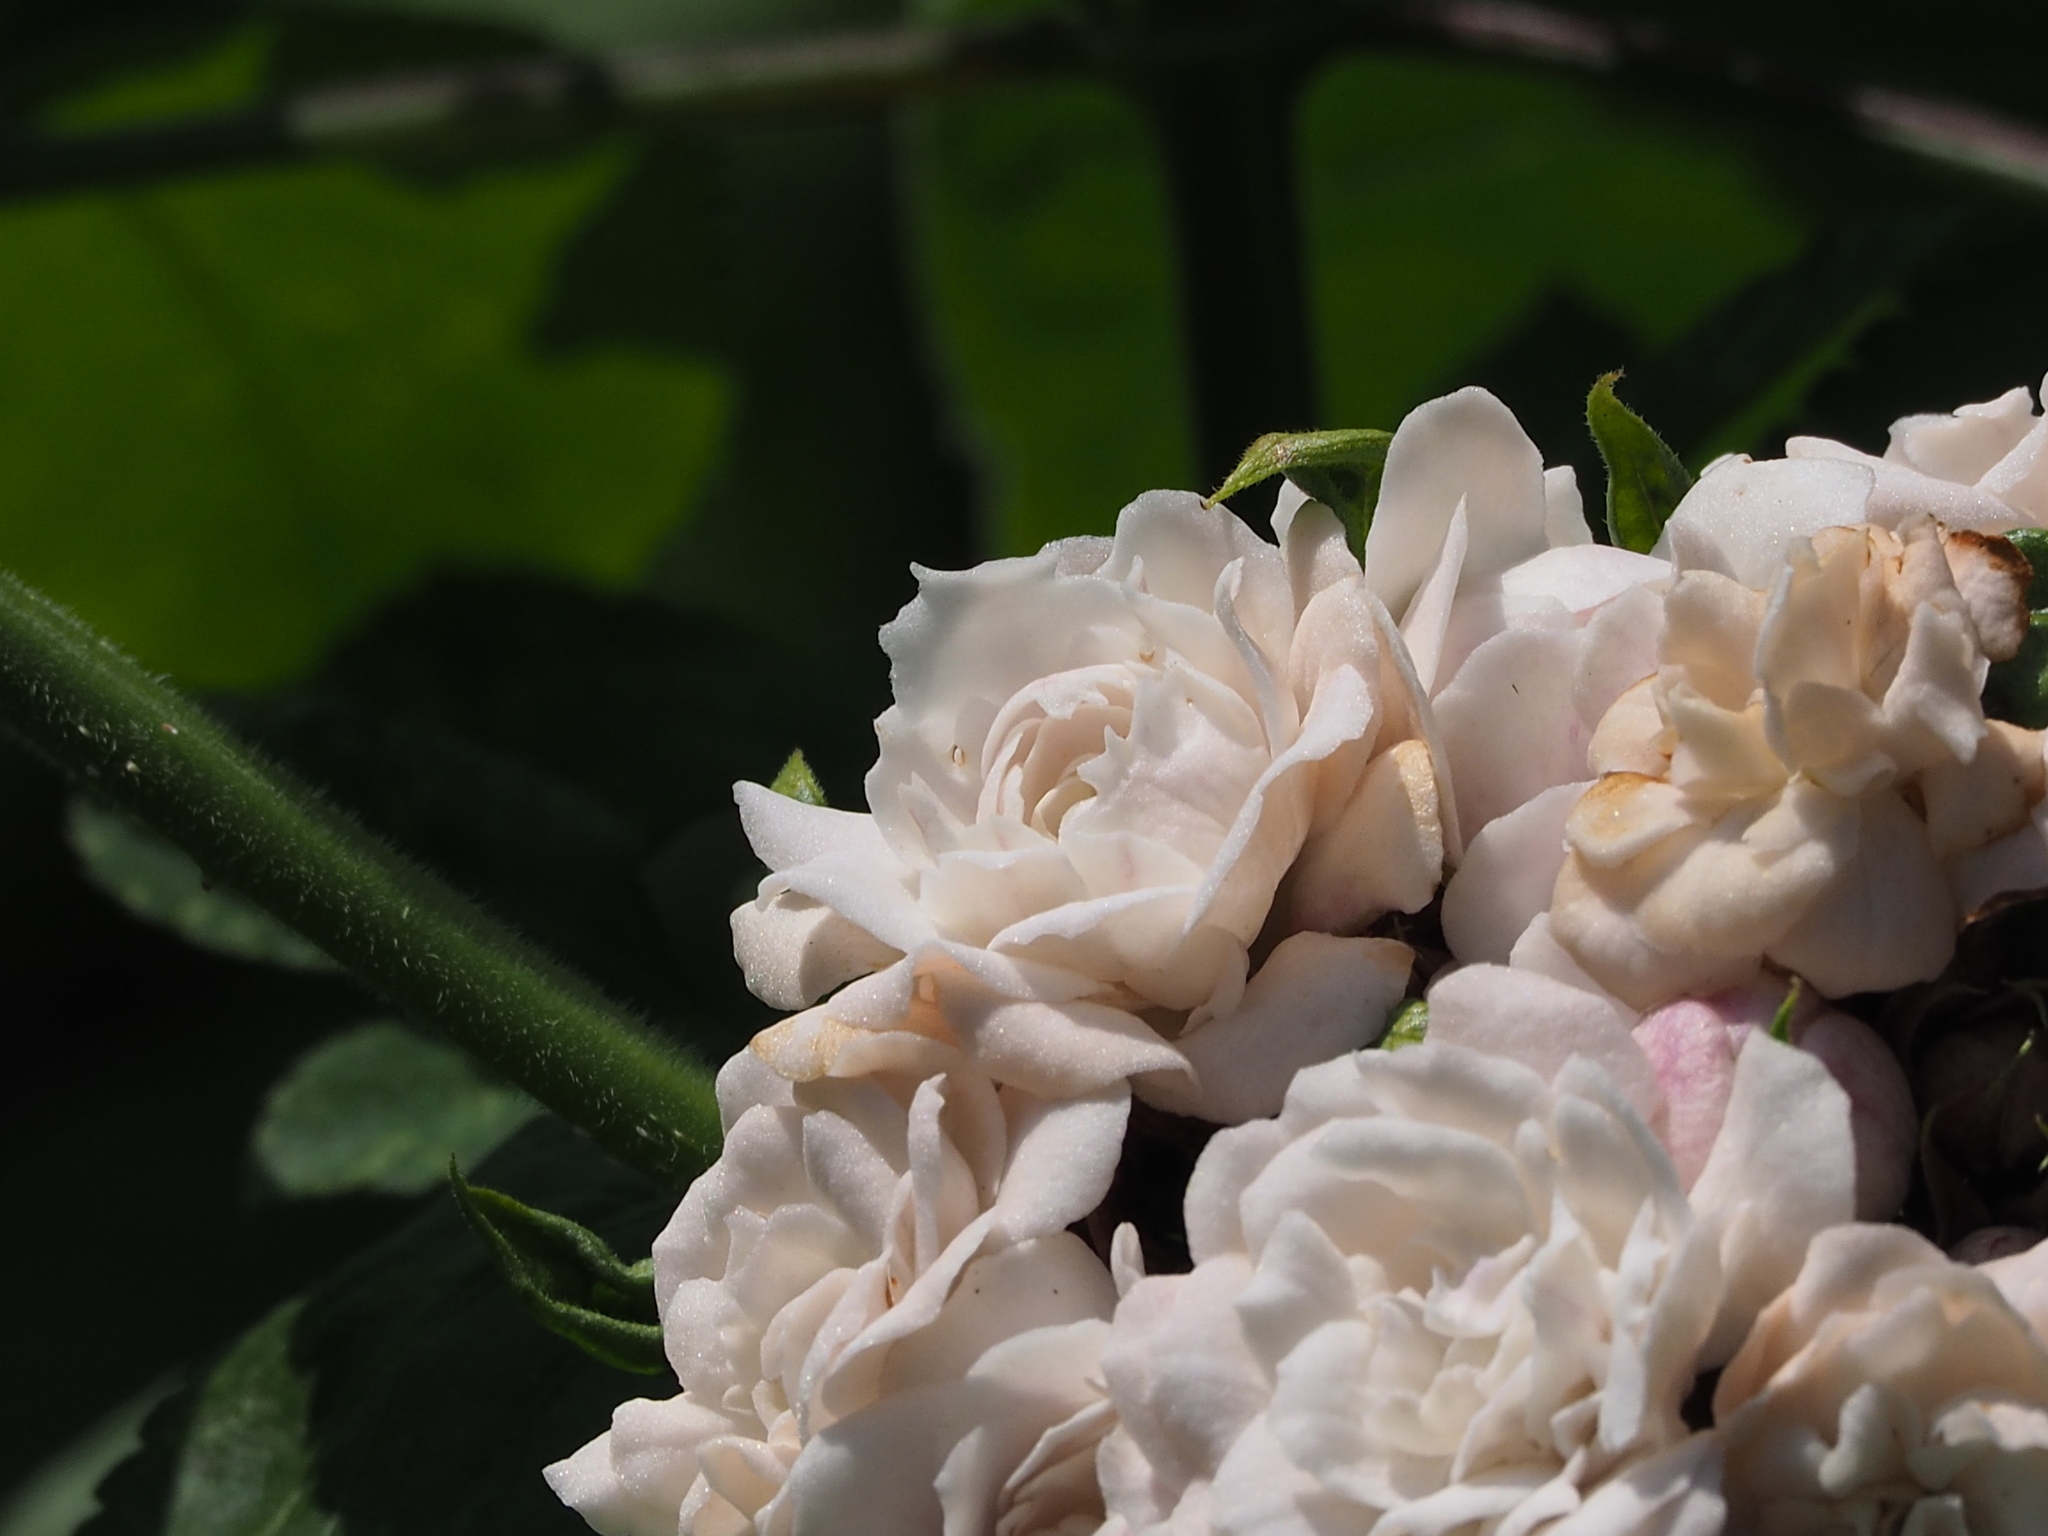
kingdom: Plantae
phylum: Tracheophyta
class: Magnoliopsida
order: Lamiales
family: Lamiaceae
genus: Clerodendrum
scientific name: Clerodendrum chinense
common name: Stickbush
